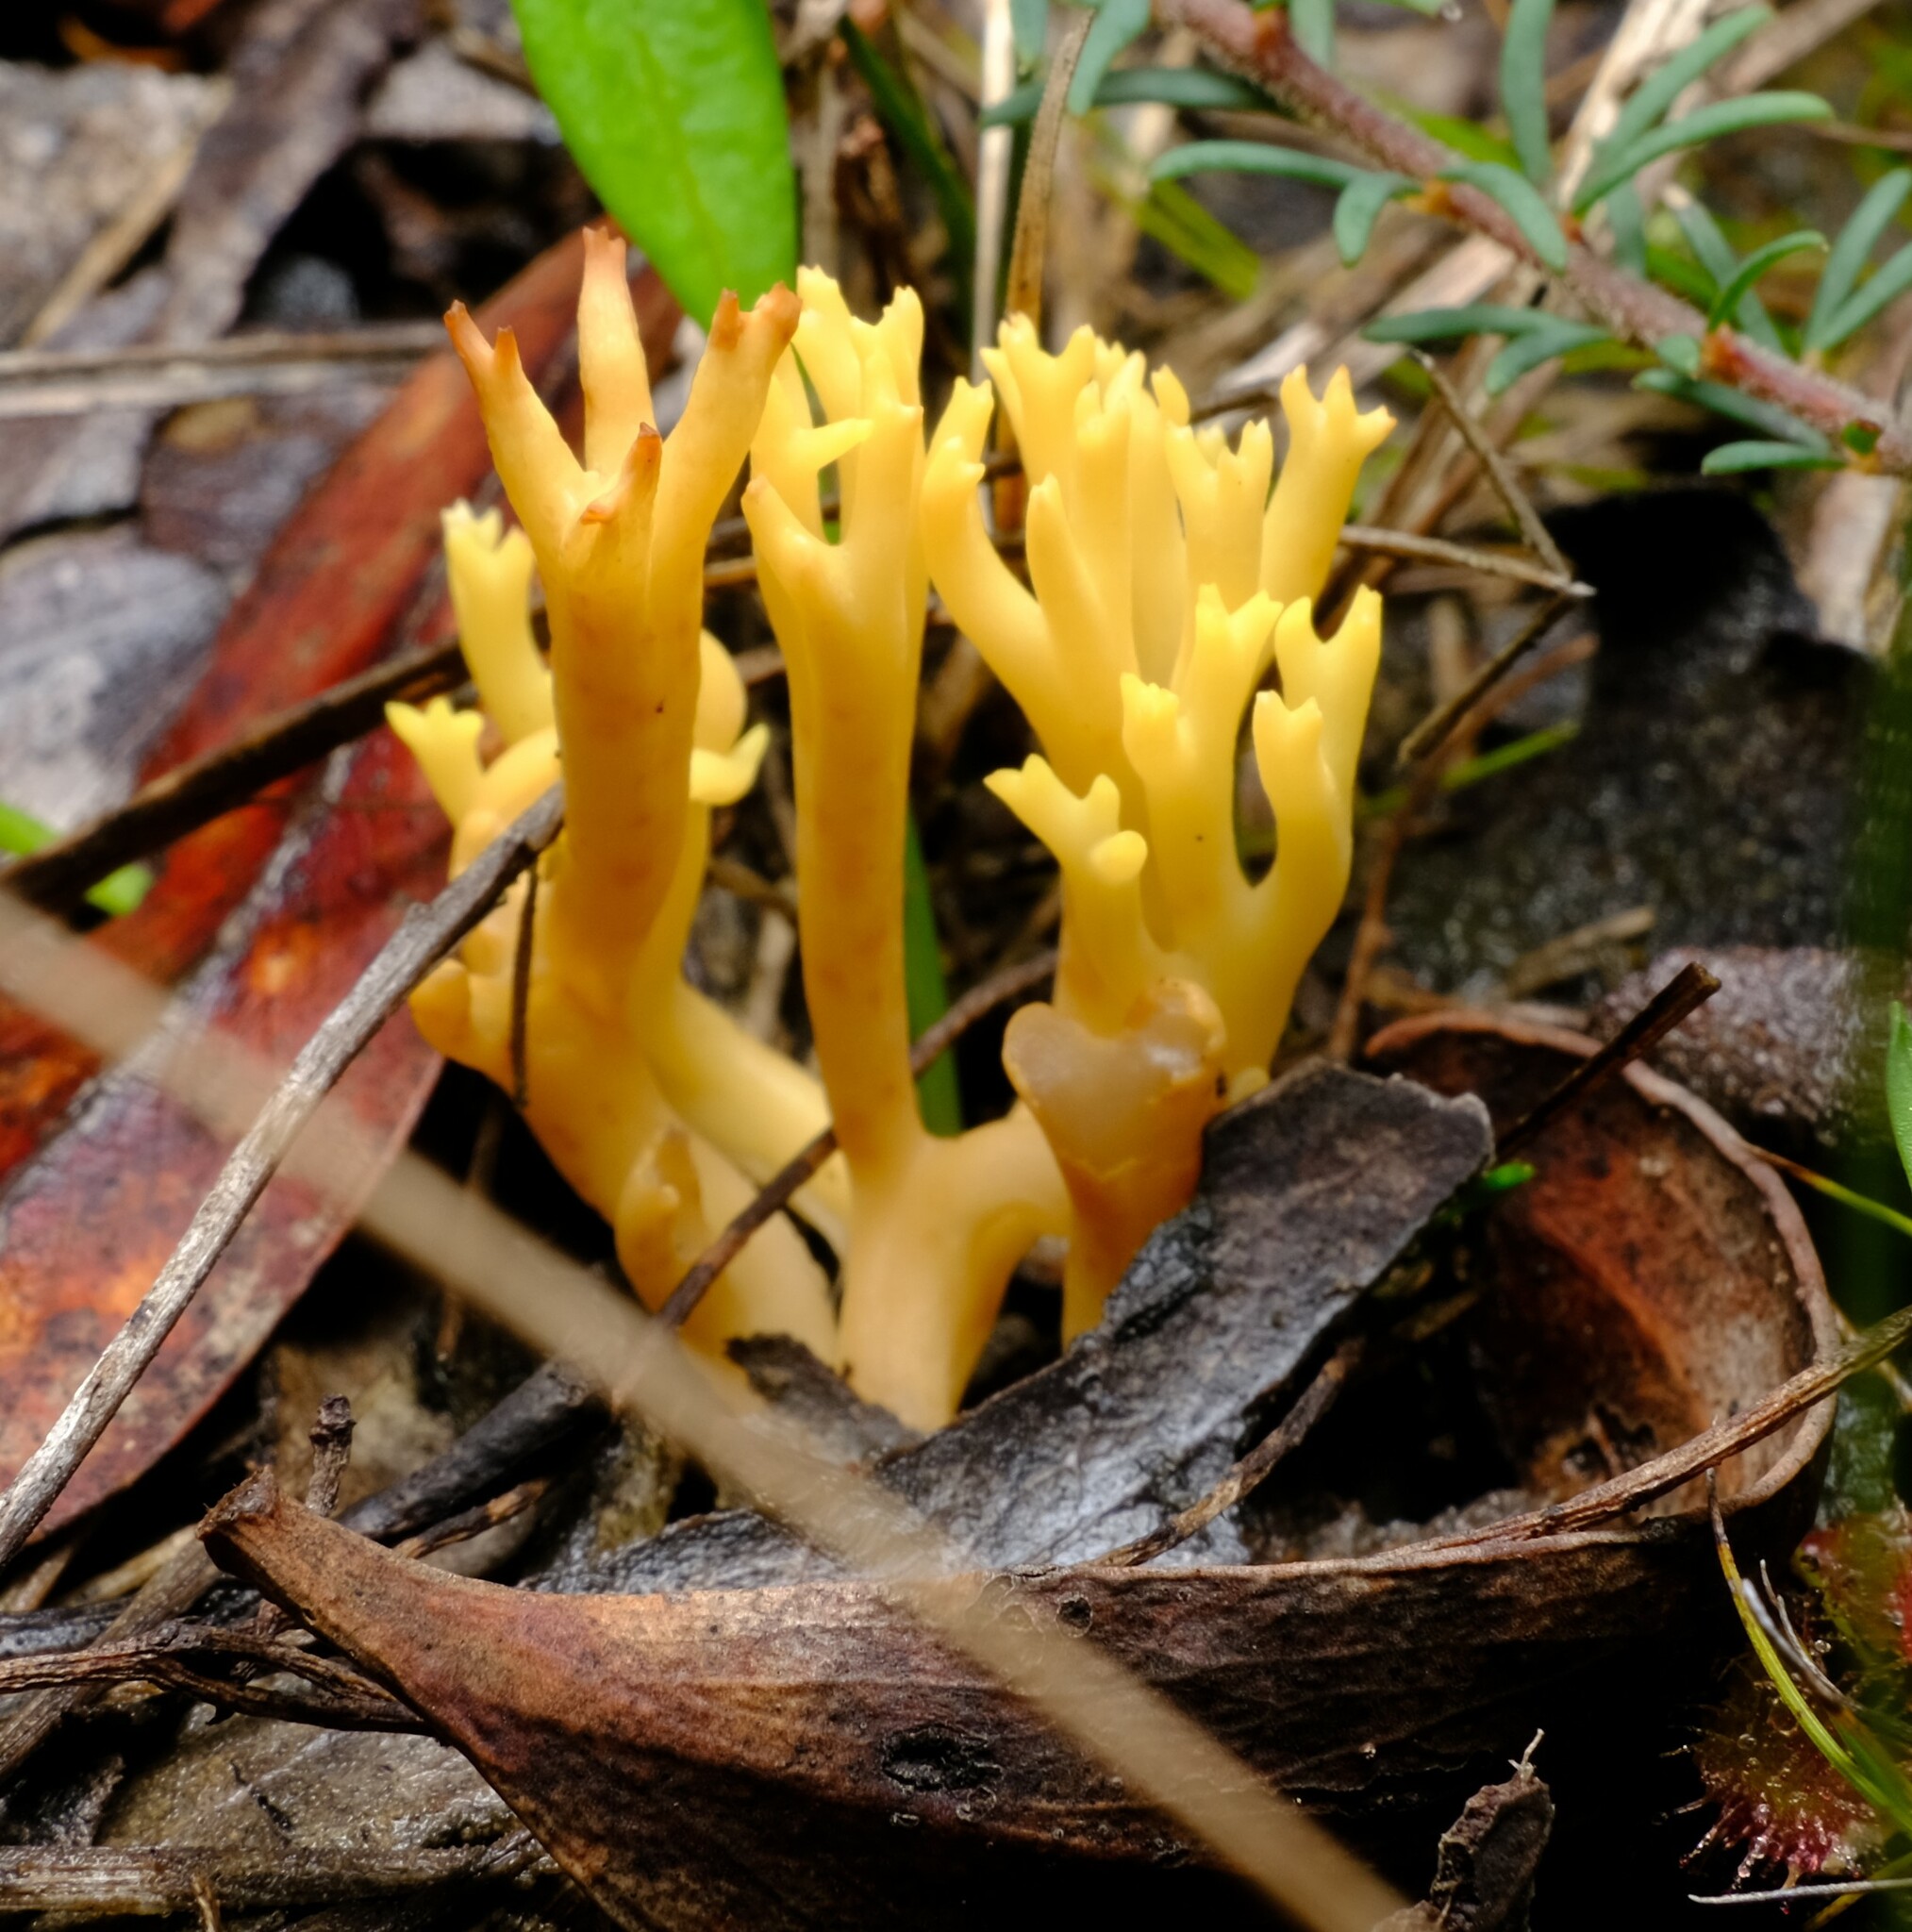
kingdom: Fungi
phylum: Basidiomycota
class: Agaricomycetes
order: Gomphales
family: Gomphaceae
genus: Ramaria
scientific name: Ramaria lorithamnus
